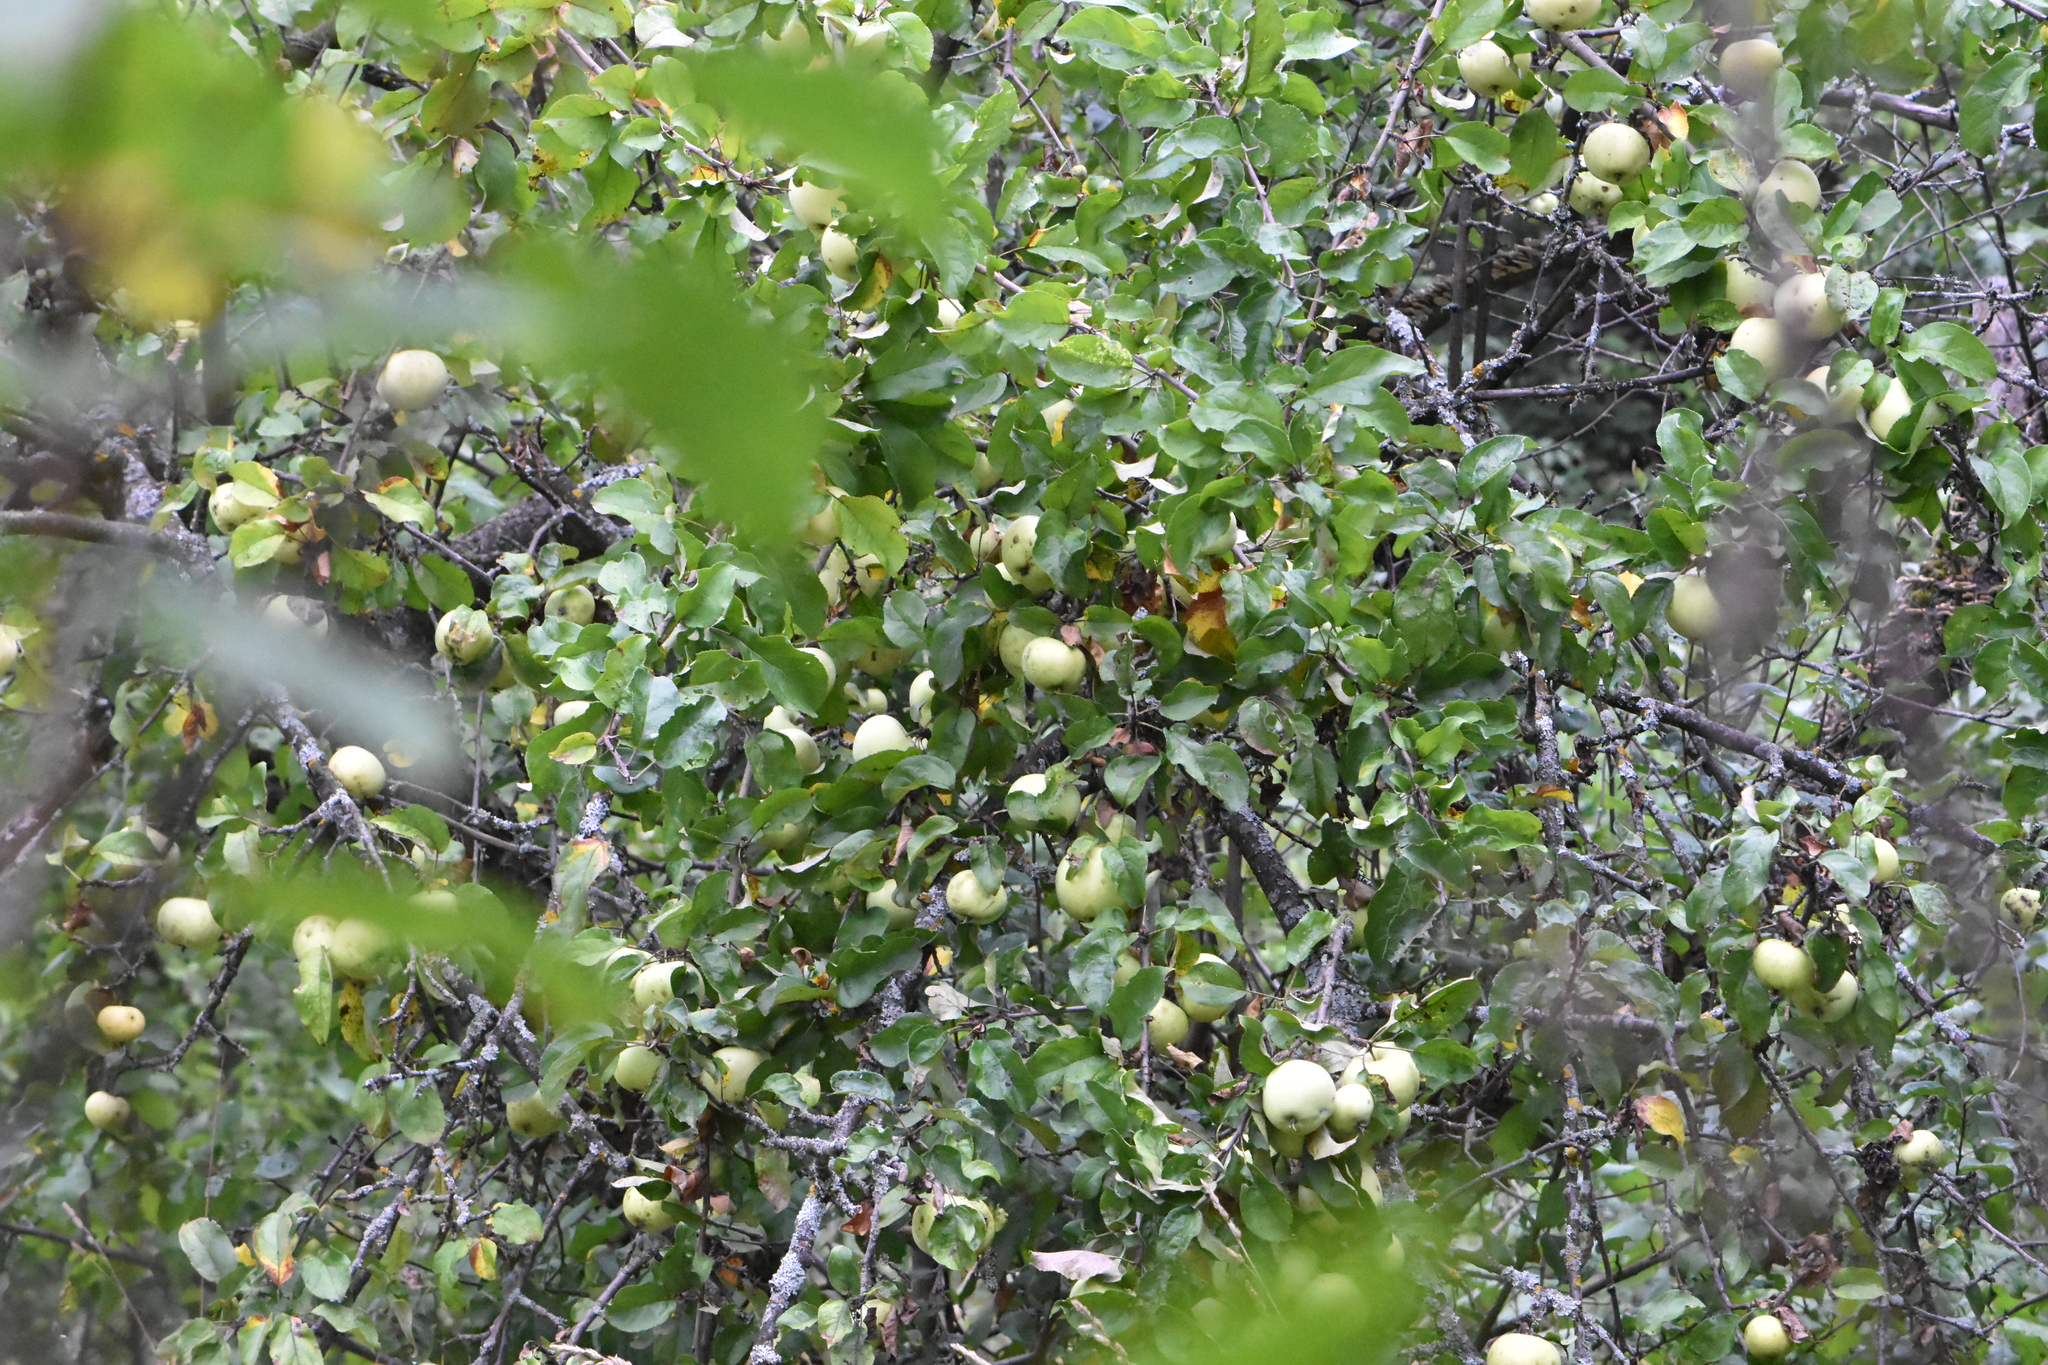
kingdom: Plantae
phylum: Tracheophyta
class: Magnoliopsida
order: Rosales
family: Rosaceae
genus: Malus
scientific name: Malus domestica
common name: Apple
